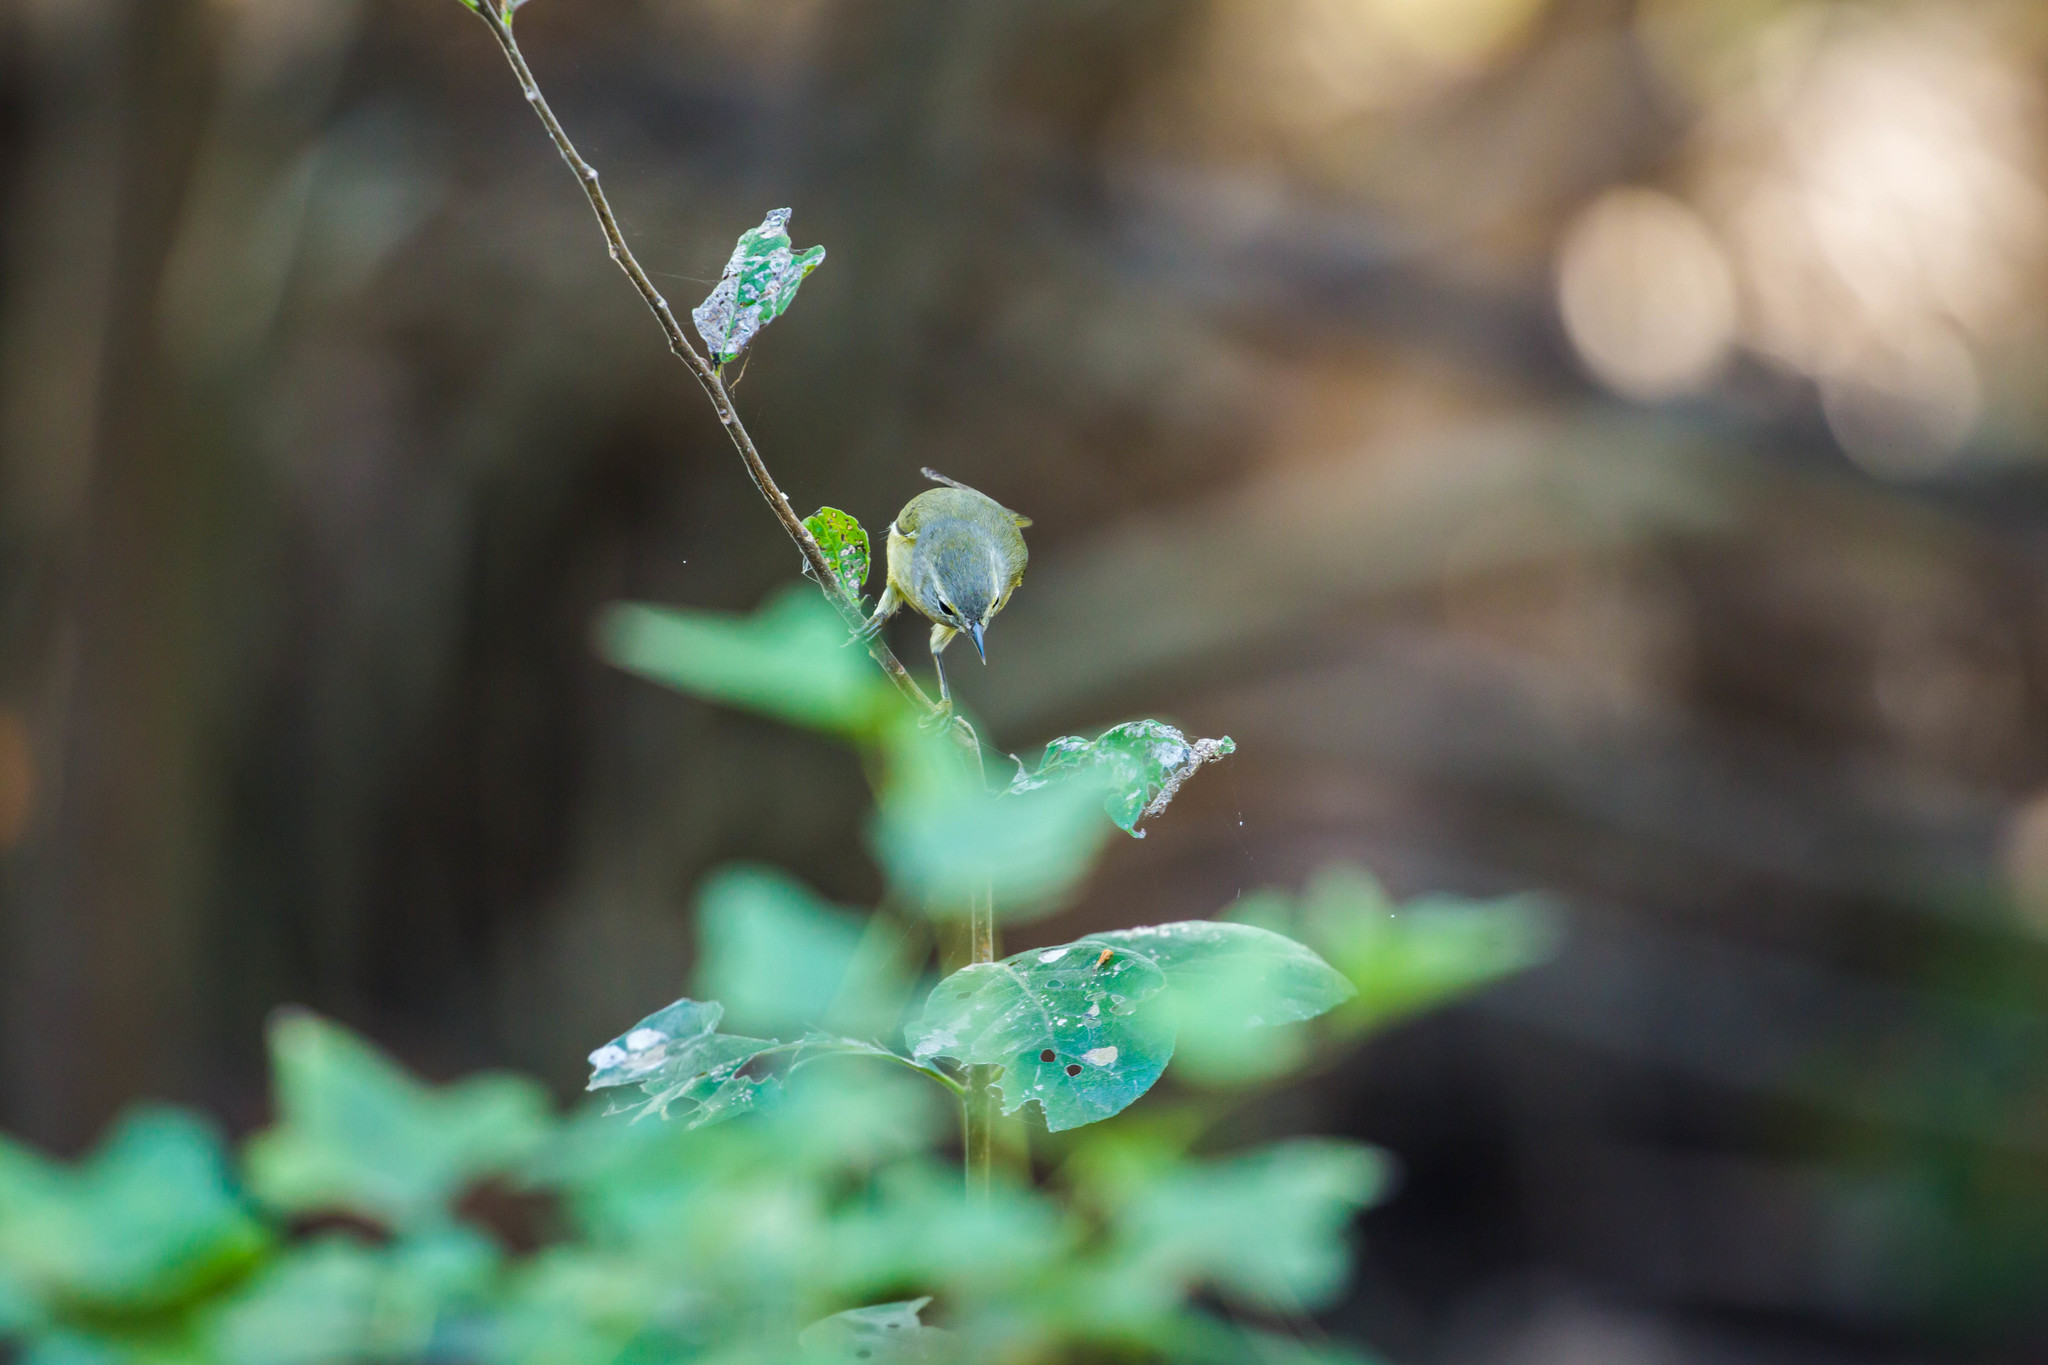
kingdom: Animalia
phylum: Chordata
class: Aves
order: Passeriformes
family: Parulidae
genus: Leiothlypis
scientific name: Leiothlypis celata
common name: Orange-crowned warbler
